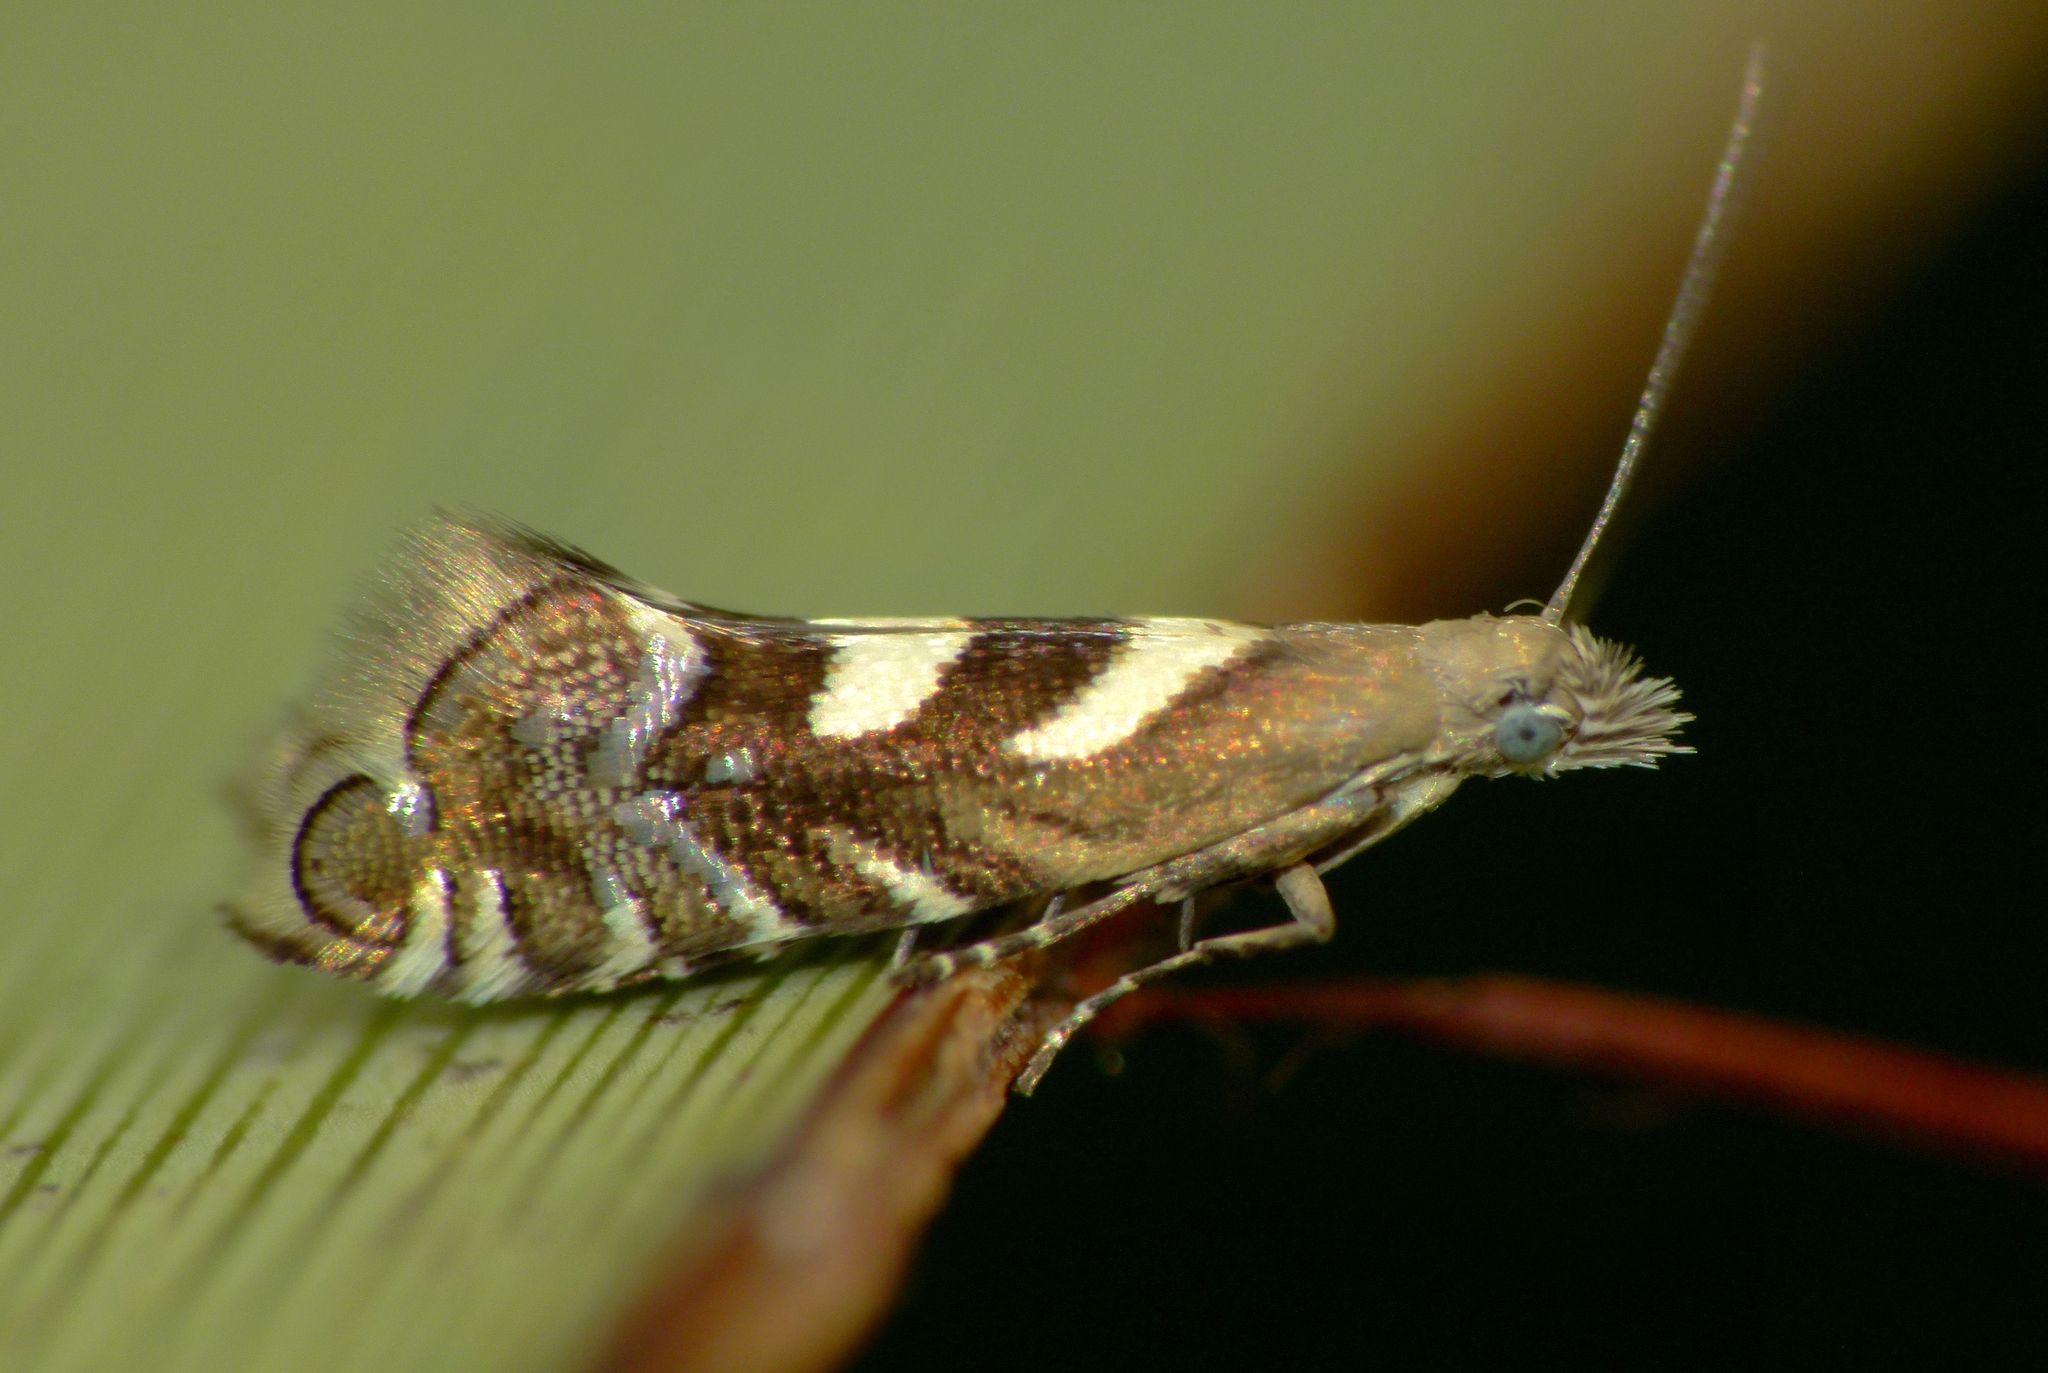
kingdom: Animalia
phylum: Arthropoda
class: Insecta
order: Lepidoptera
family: Glyphipterigidae
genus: Glyphipterix
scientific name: Glyphipterix asteronota
